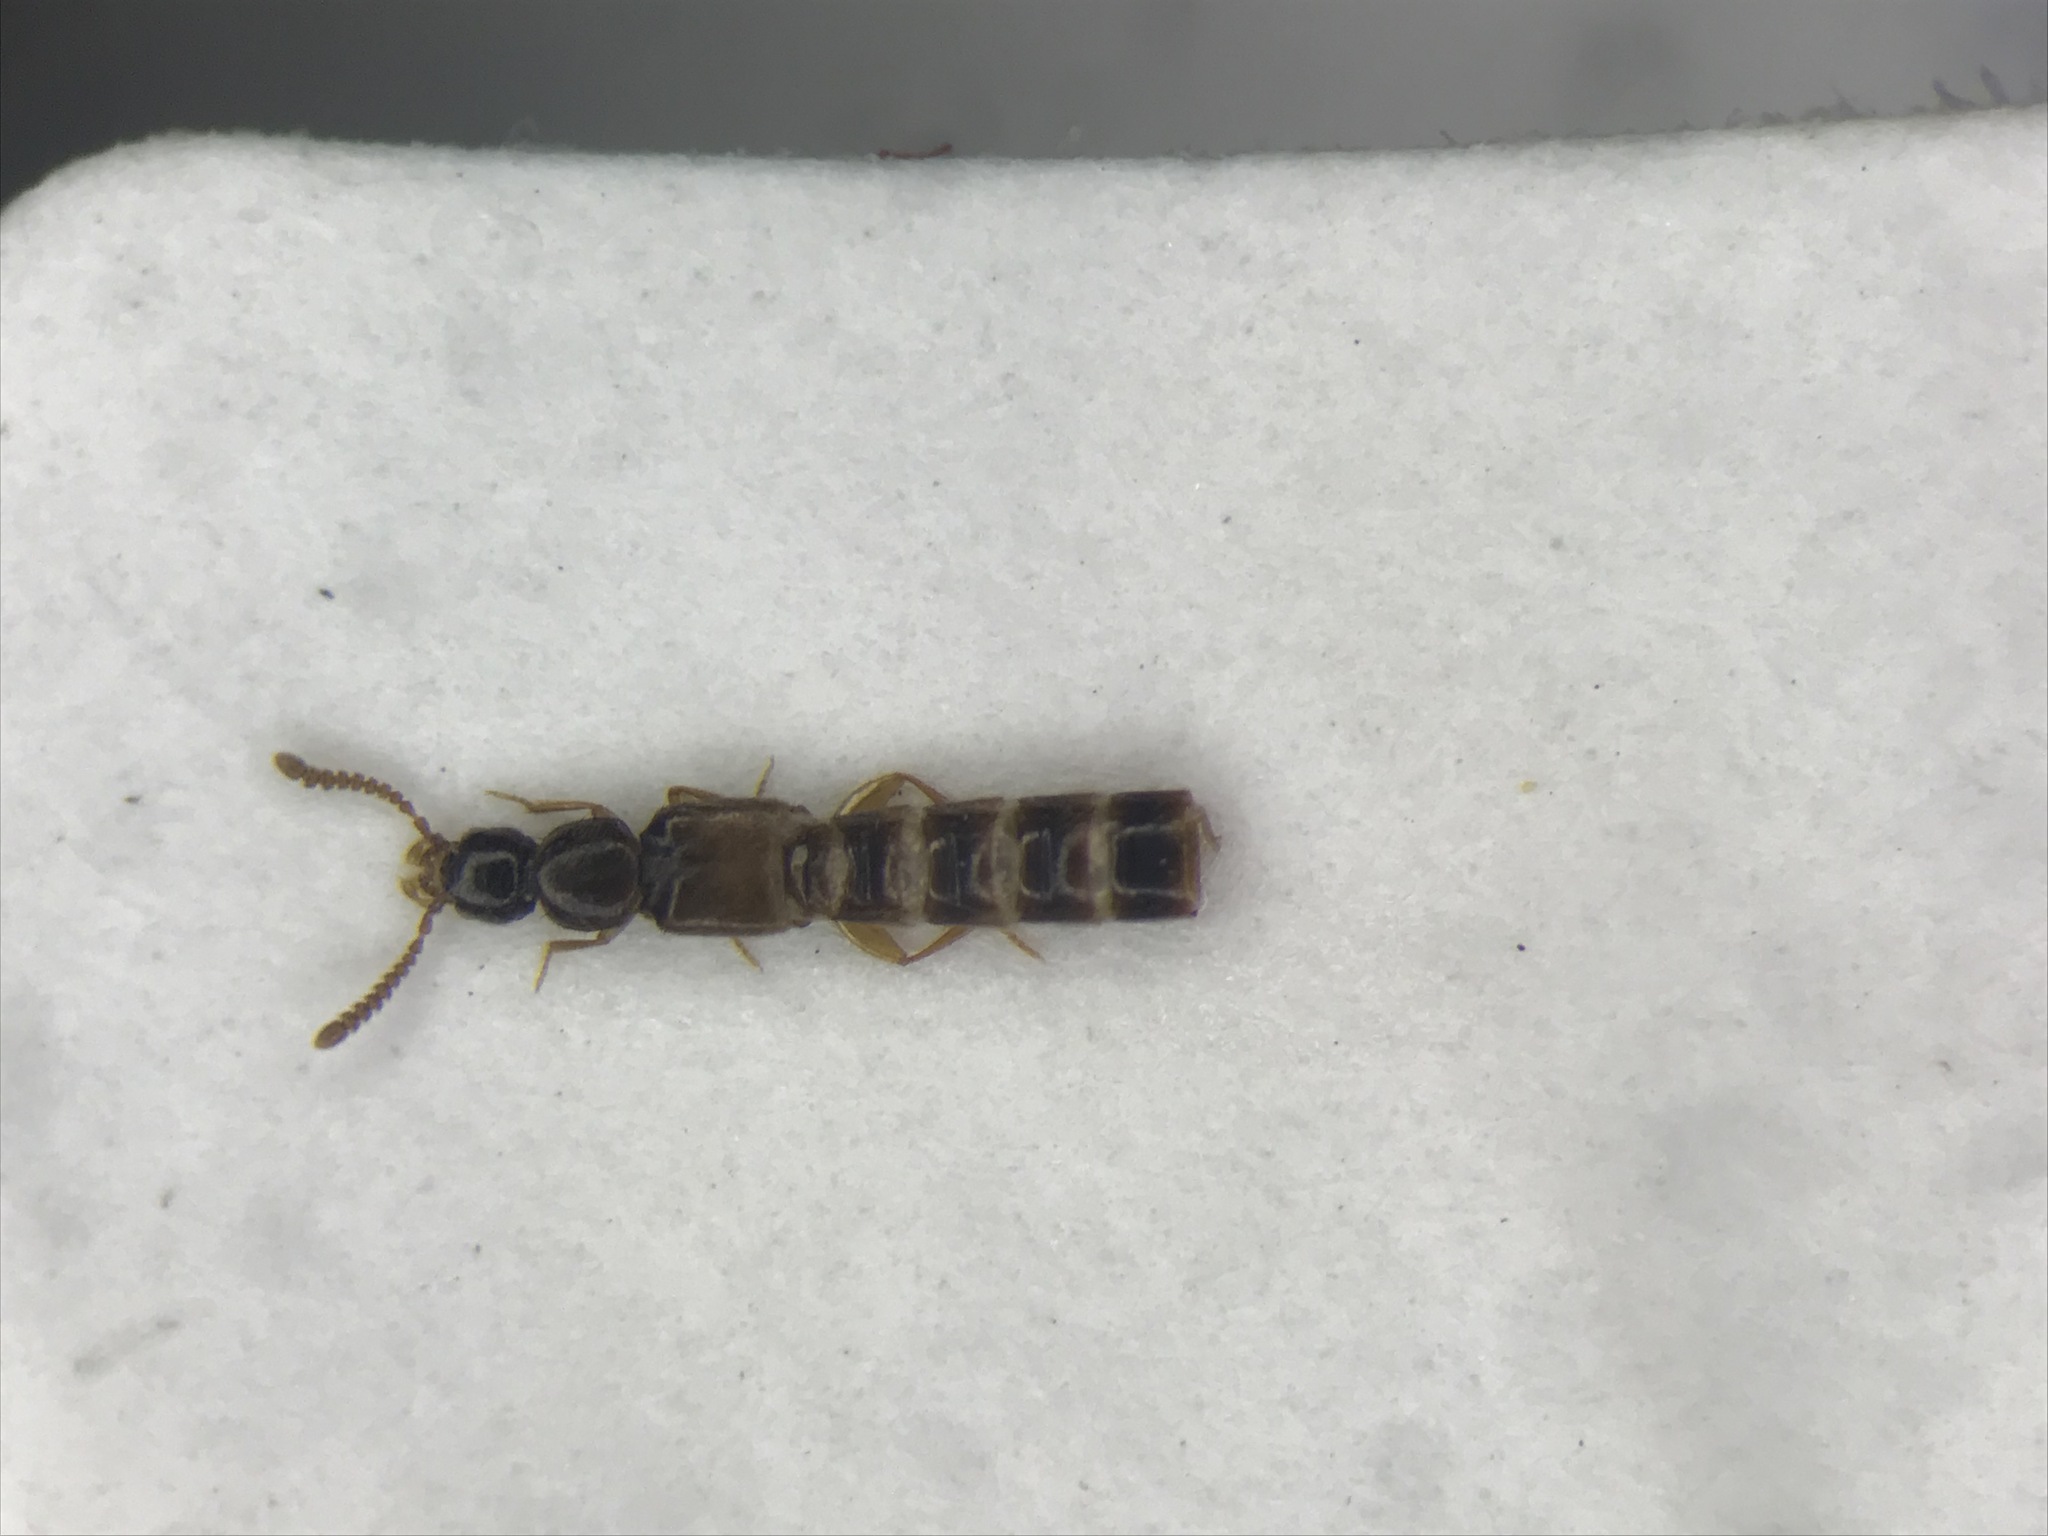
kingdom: Animalia
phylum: Arthropoda
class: Insecta
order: Coleoptera
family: Staphylinidae
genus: Alevonota
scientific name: Alevonota gracilenta
